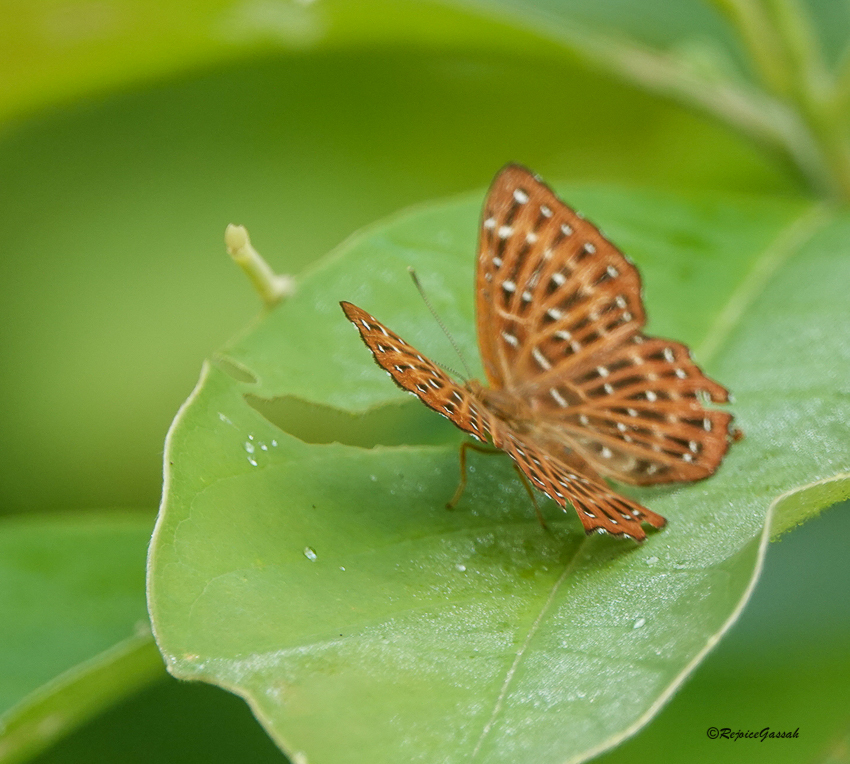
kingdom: Animalia
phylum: Arthropoda
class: Insecta
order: Lepidoptera
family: Riodinidae
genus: Zemeros
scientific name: Zemeros flegyas
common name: Punchinello
